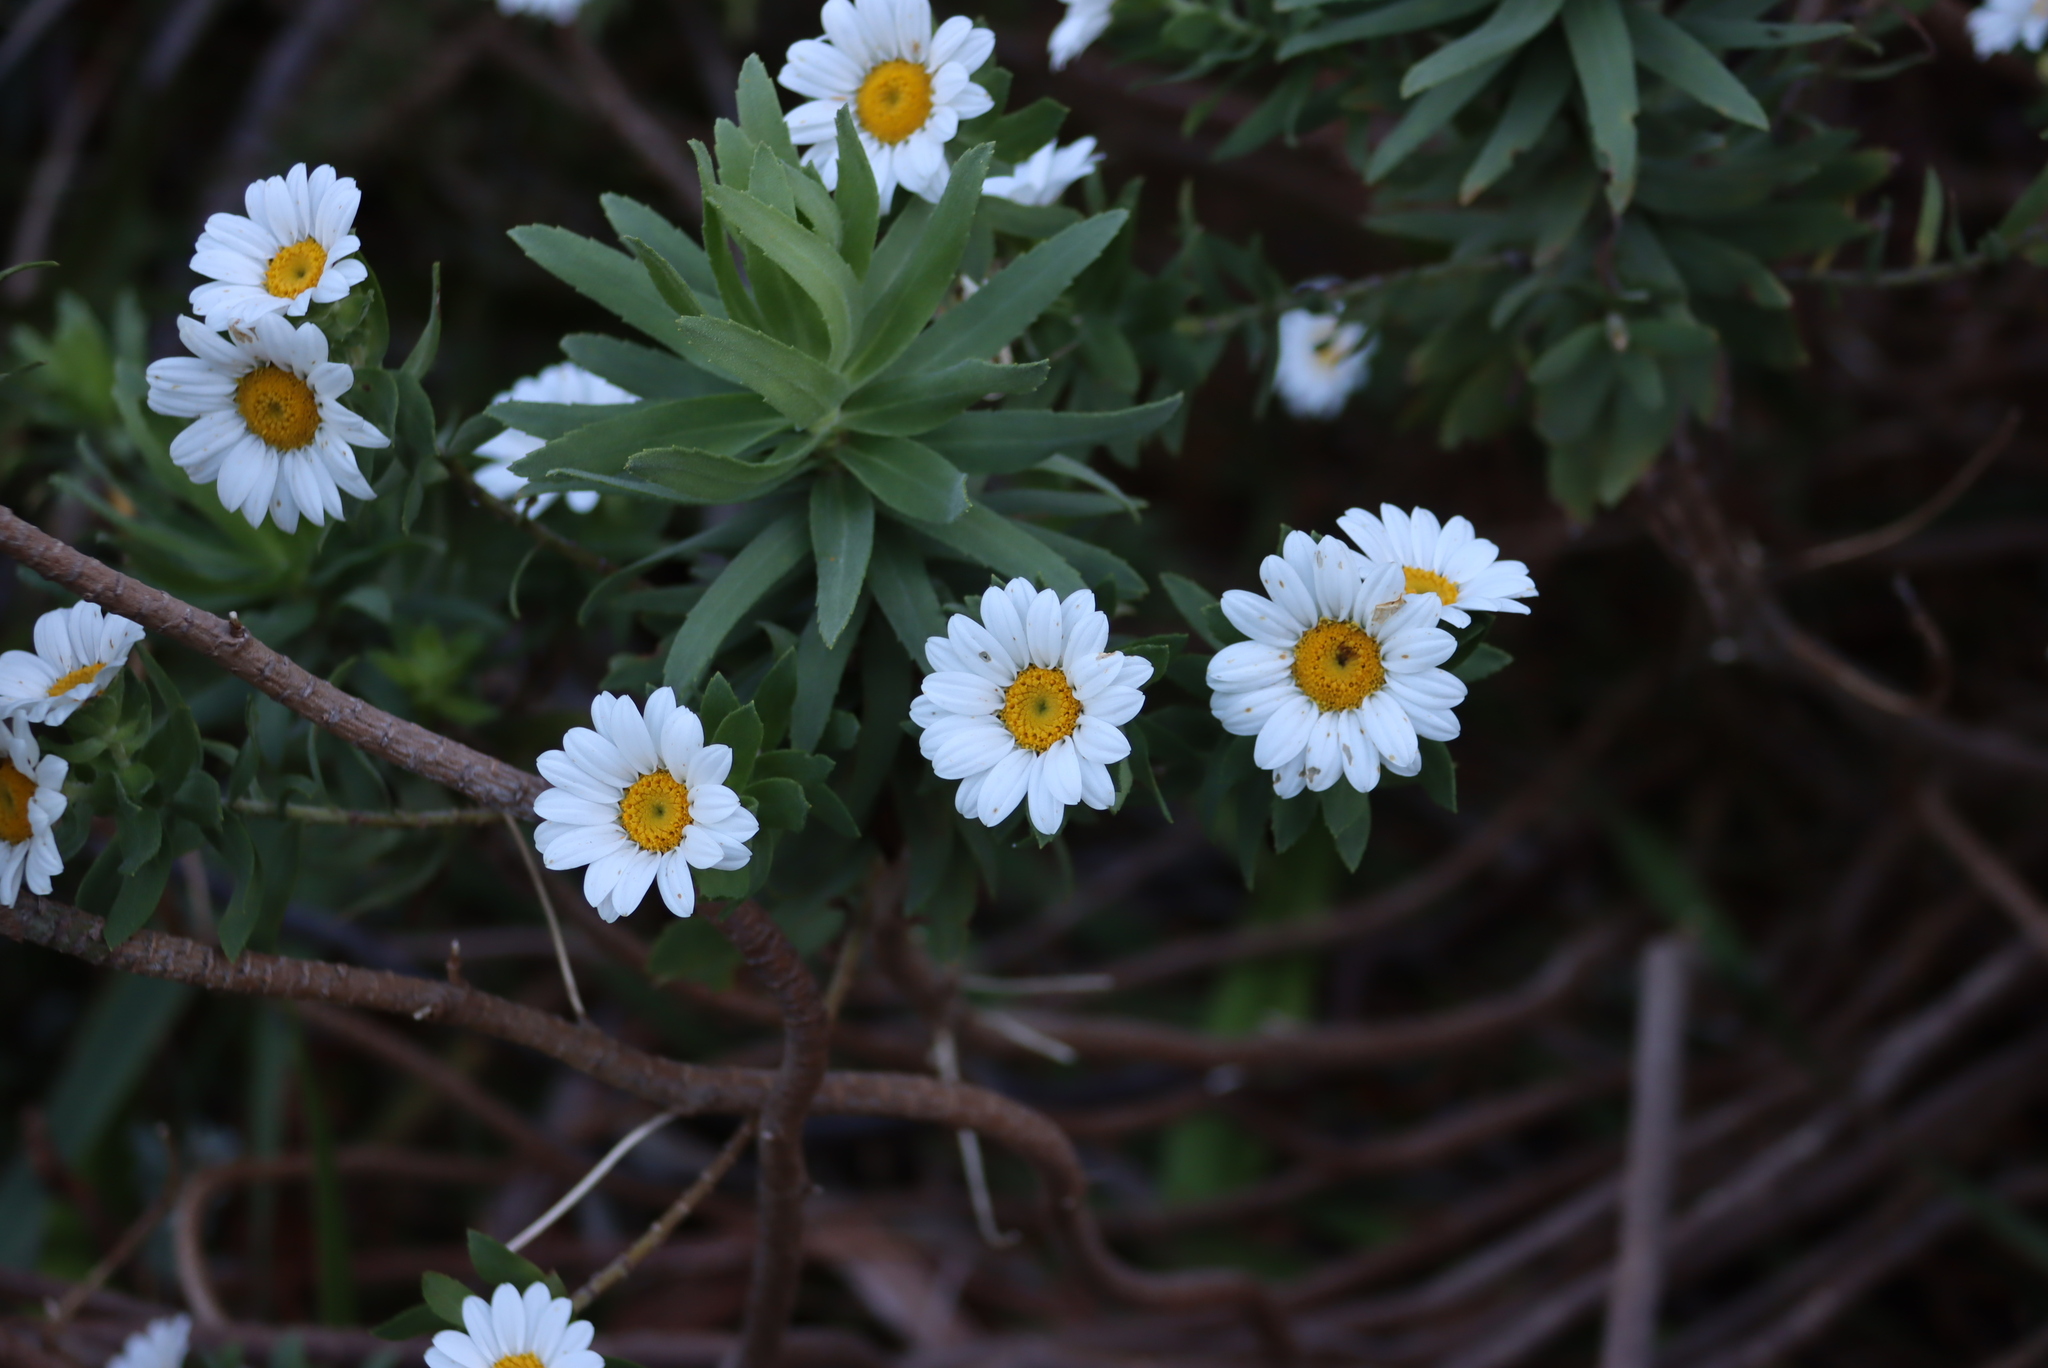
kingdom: Plantae
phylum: Tracheophyta
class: Magnoliopsida
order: Asterales
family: Asteraceae
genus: Osmitopsis
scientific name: Osmitopsis asteriscoides
